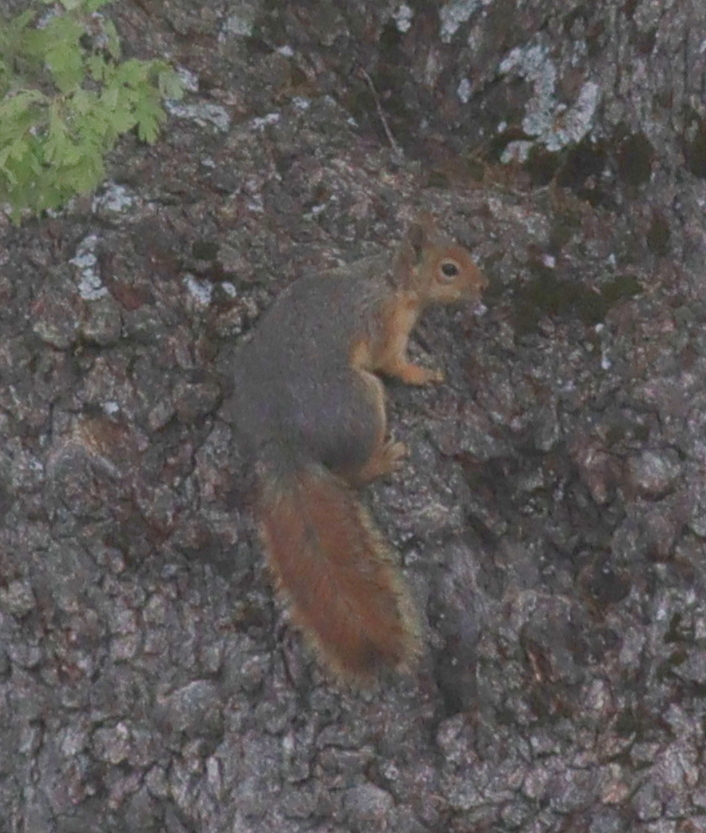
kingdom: Animalia
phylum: Chordata
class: Mammalia
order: Rodentia
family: Sciuridae
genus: Sciurus
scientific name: Sciurus anomalus
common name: Caucasian squirrel
